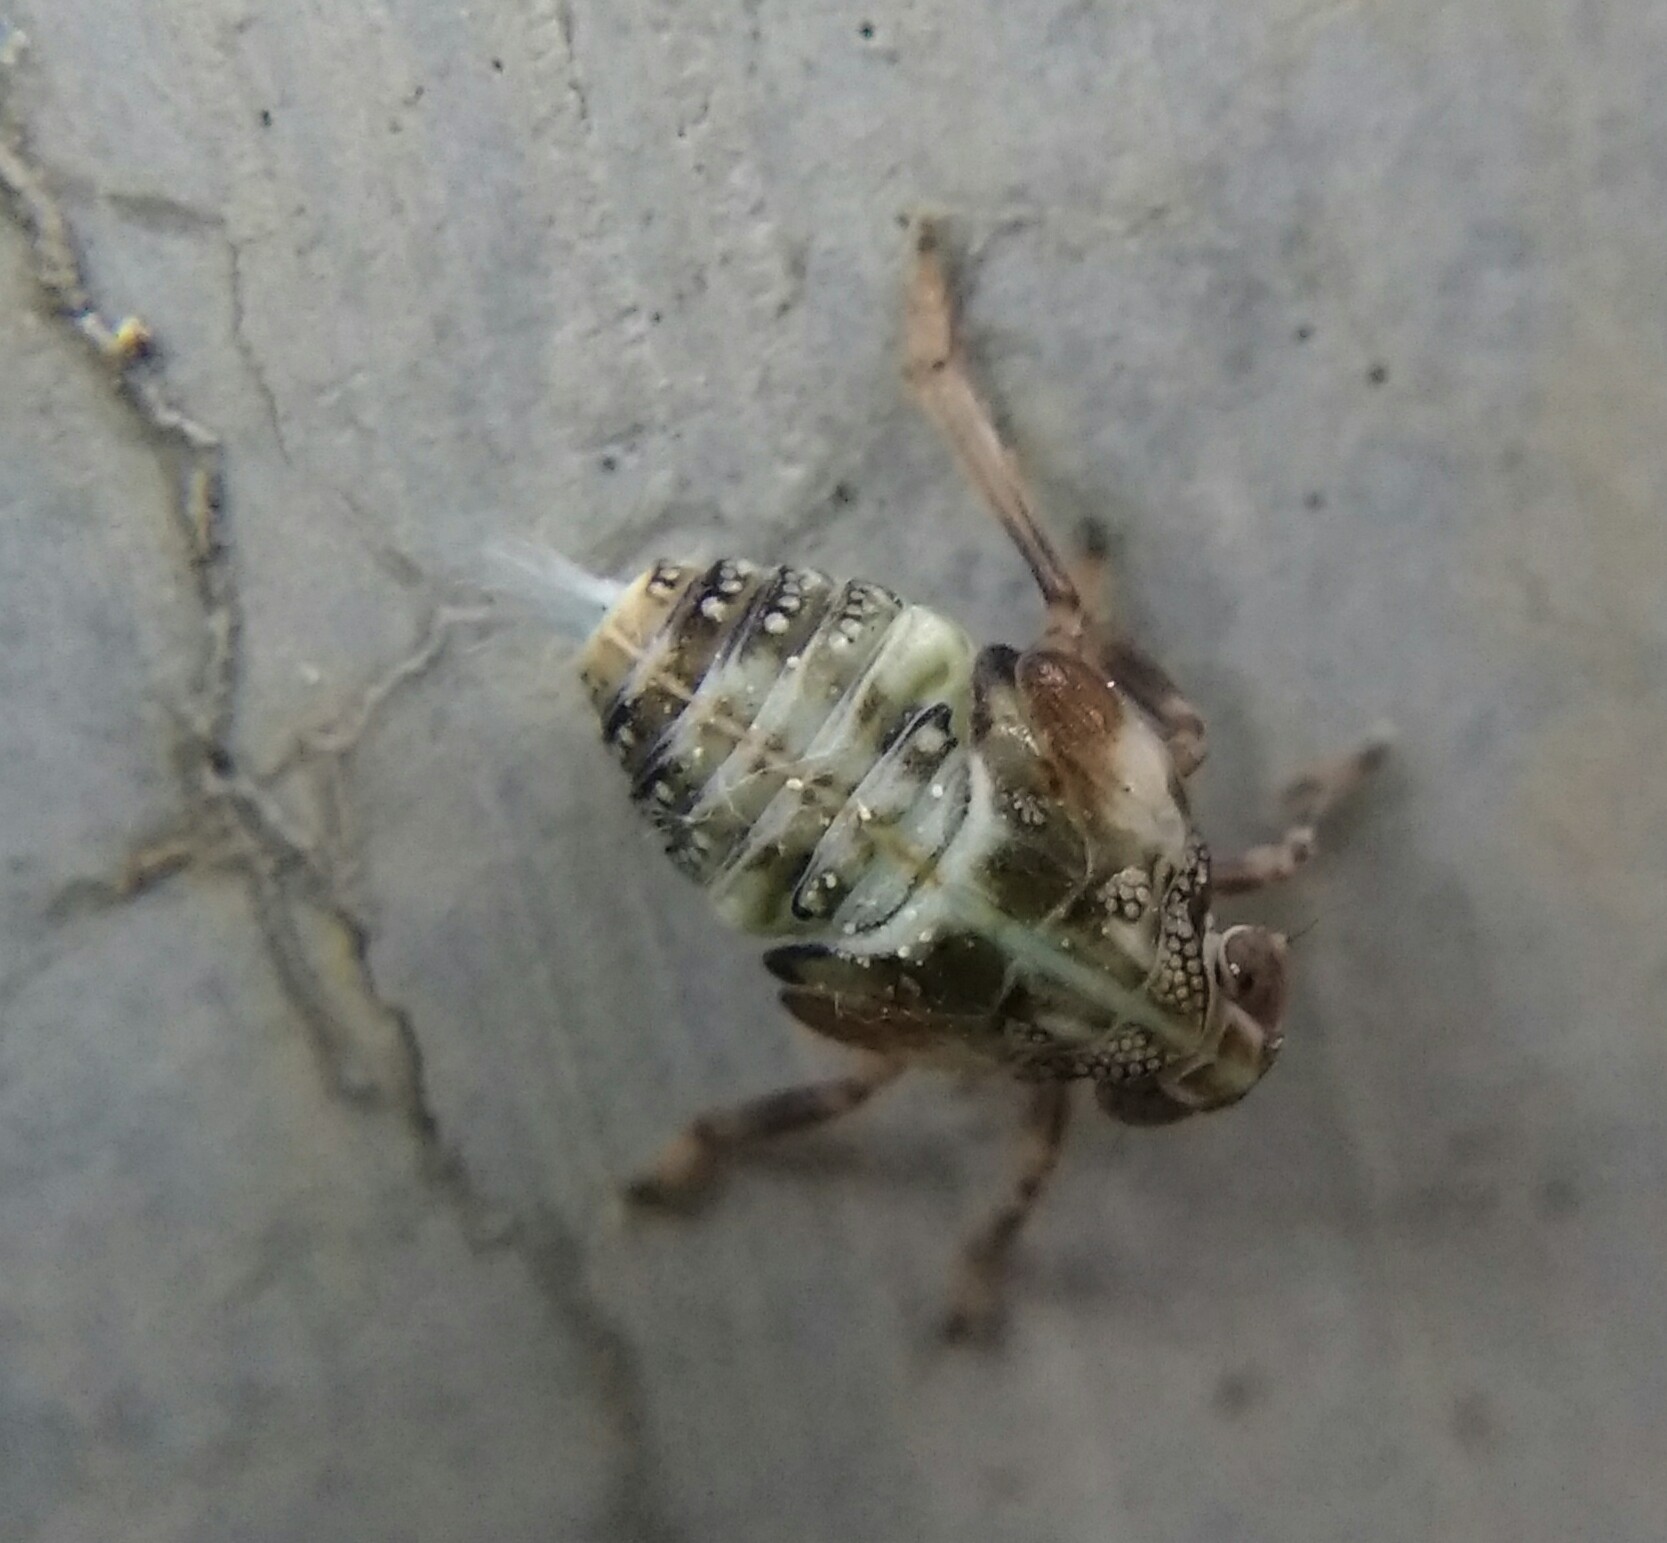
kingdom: Animalia
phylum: Arthropoda
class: Insecta
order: Hemiptera
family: Issidae
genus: Issus
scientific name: Issus
